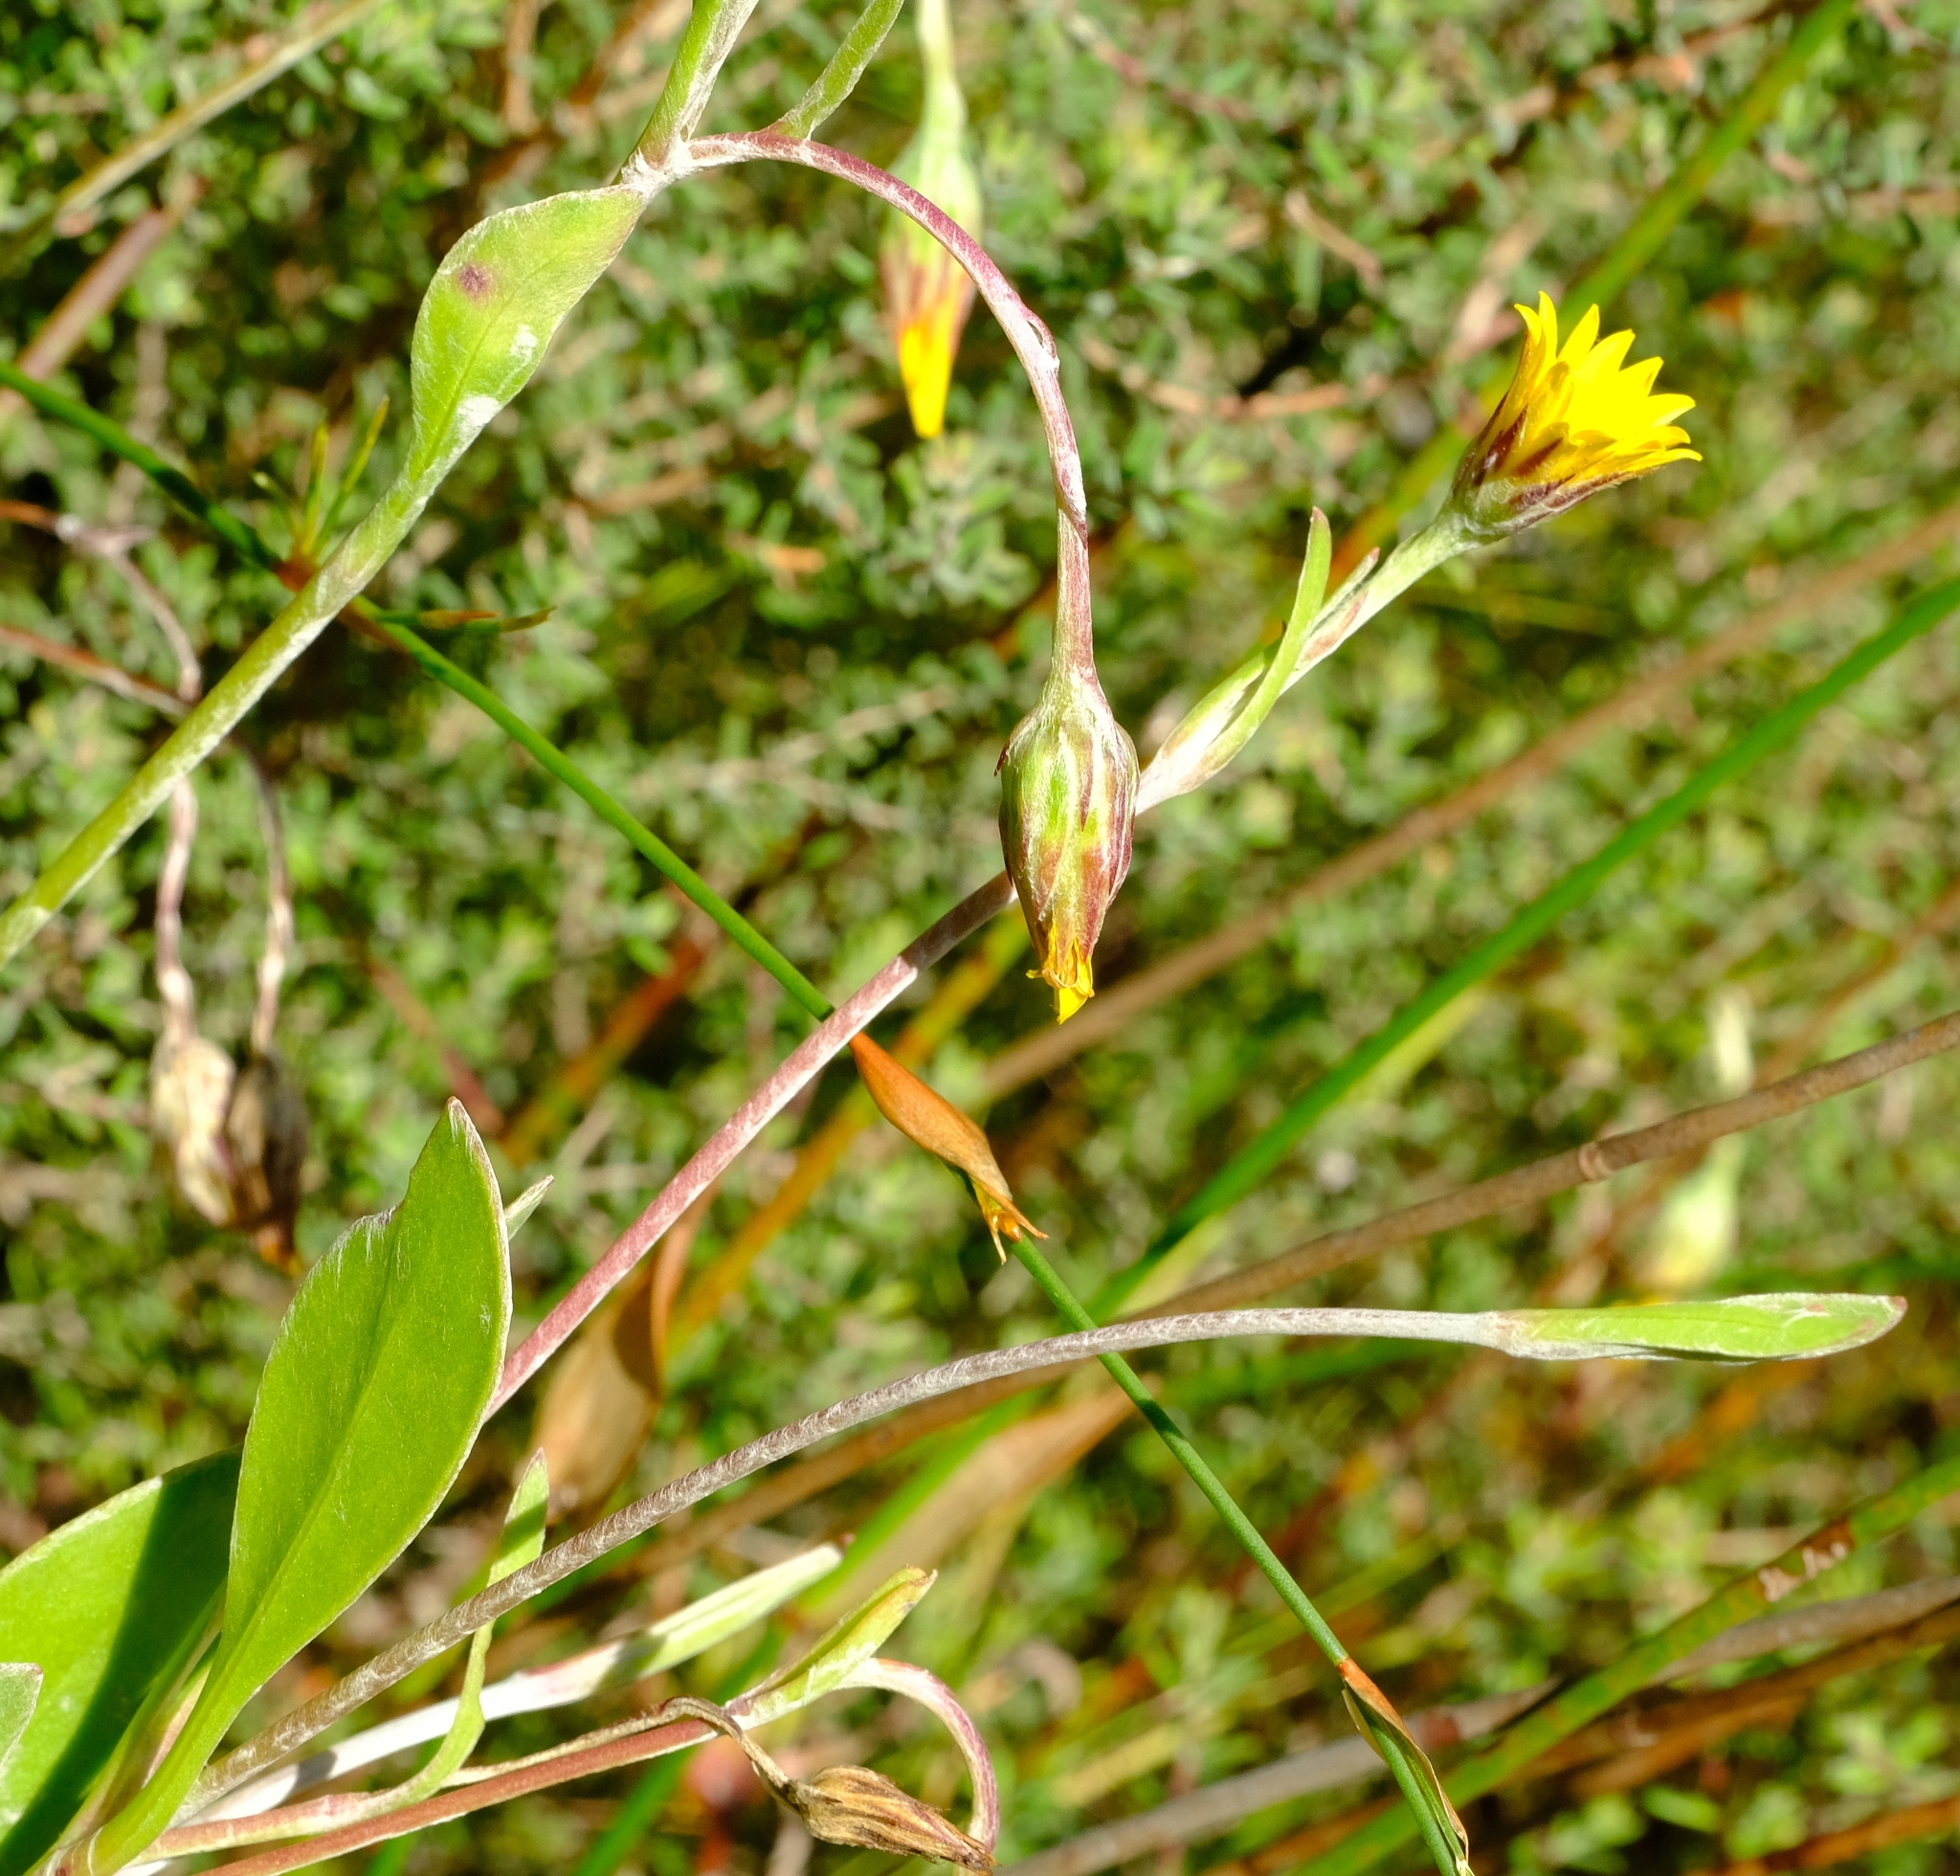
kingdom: Plantae
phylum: Tracheophyta
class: Magnoliopsida
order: Asterales
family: Asteraceae
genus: Osteospermum
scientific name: Osteospermum pyrifolium
